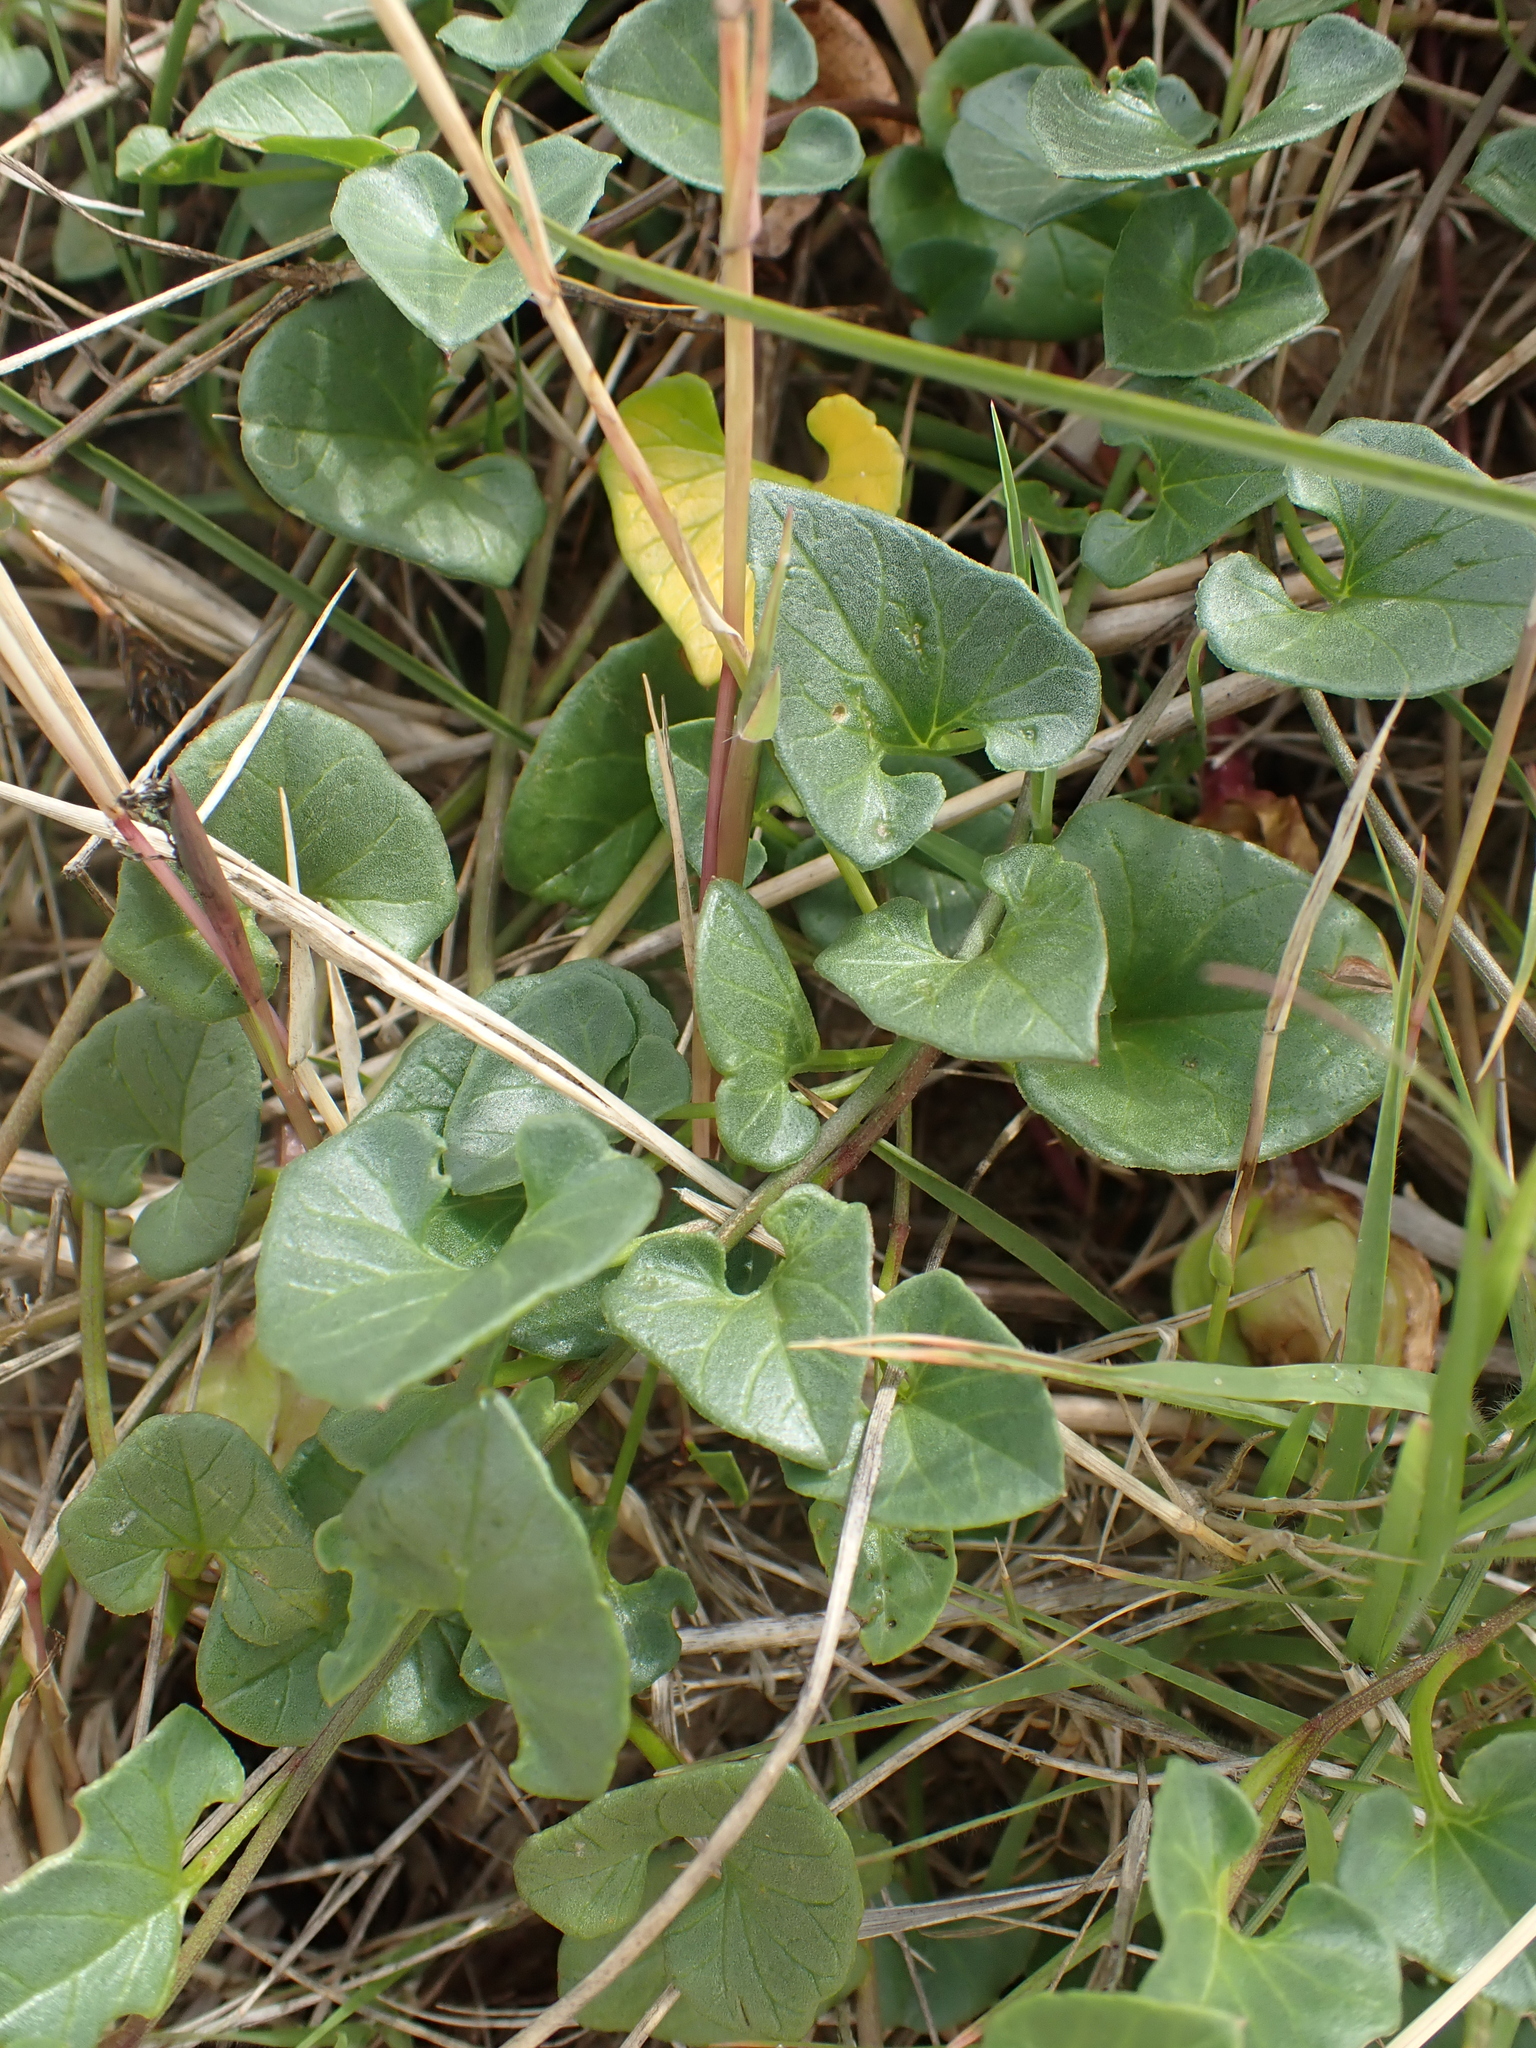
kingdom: Plantae
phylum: Tracheophyta
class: Magnoliopsida
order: Solanales
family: Convolvulaceae
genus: Calystegia
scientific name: Calystegia soldanella
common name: Sea bindweed
